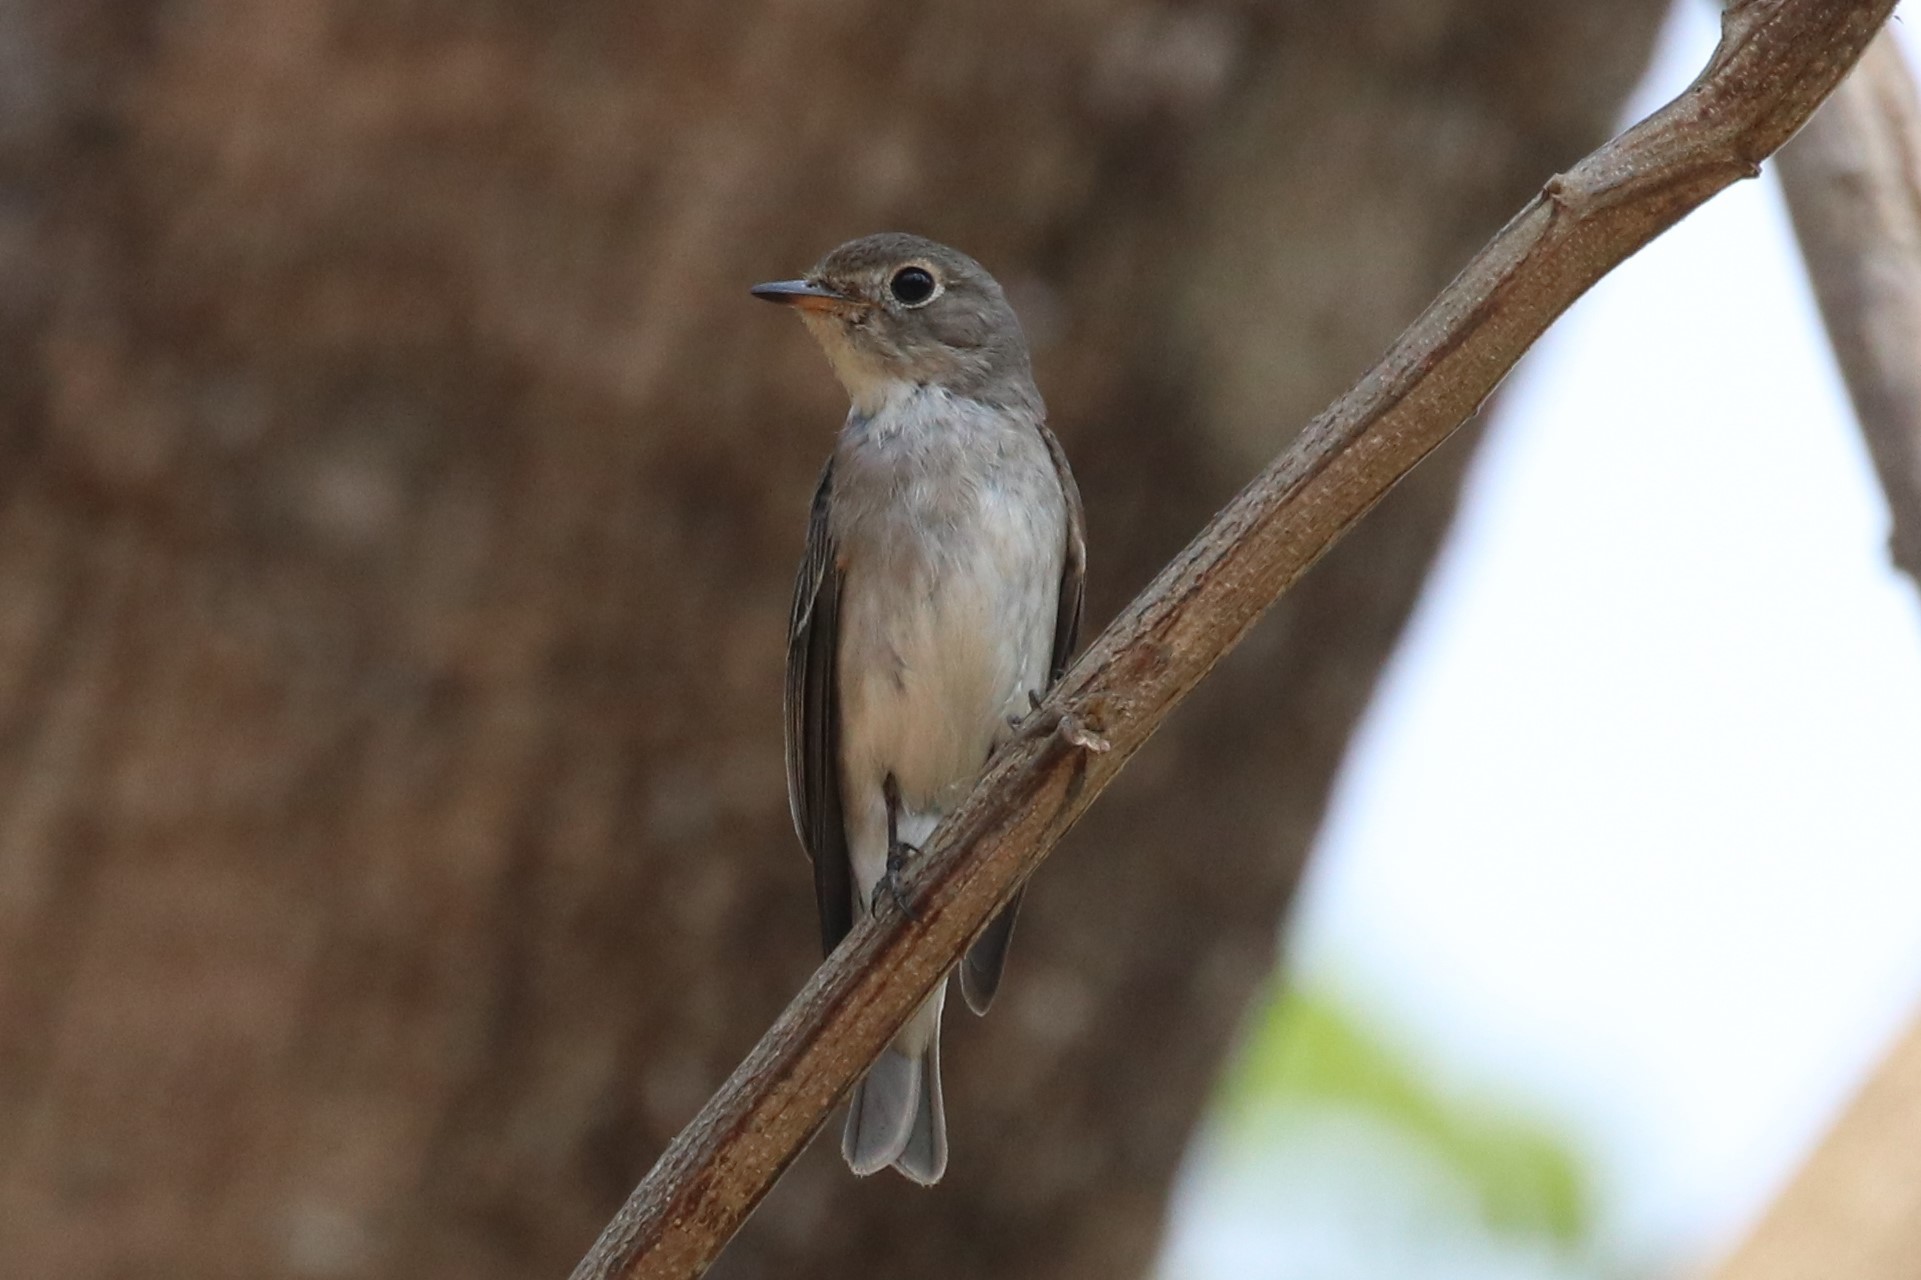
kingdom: Animalia
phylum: Chordata
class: Aves
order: Passeriformes
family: Muscicapidae
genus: Muscicapa
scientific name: Muscicapa latirostris
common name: Asian brown flycatcher
